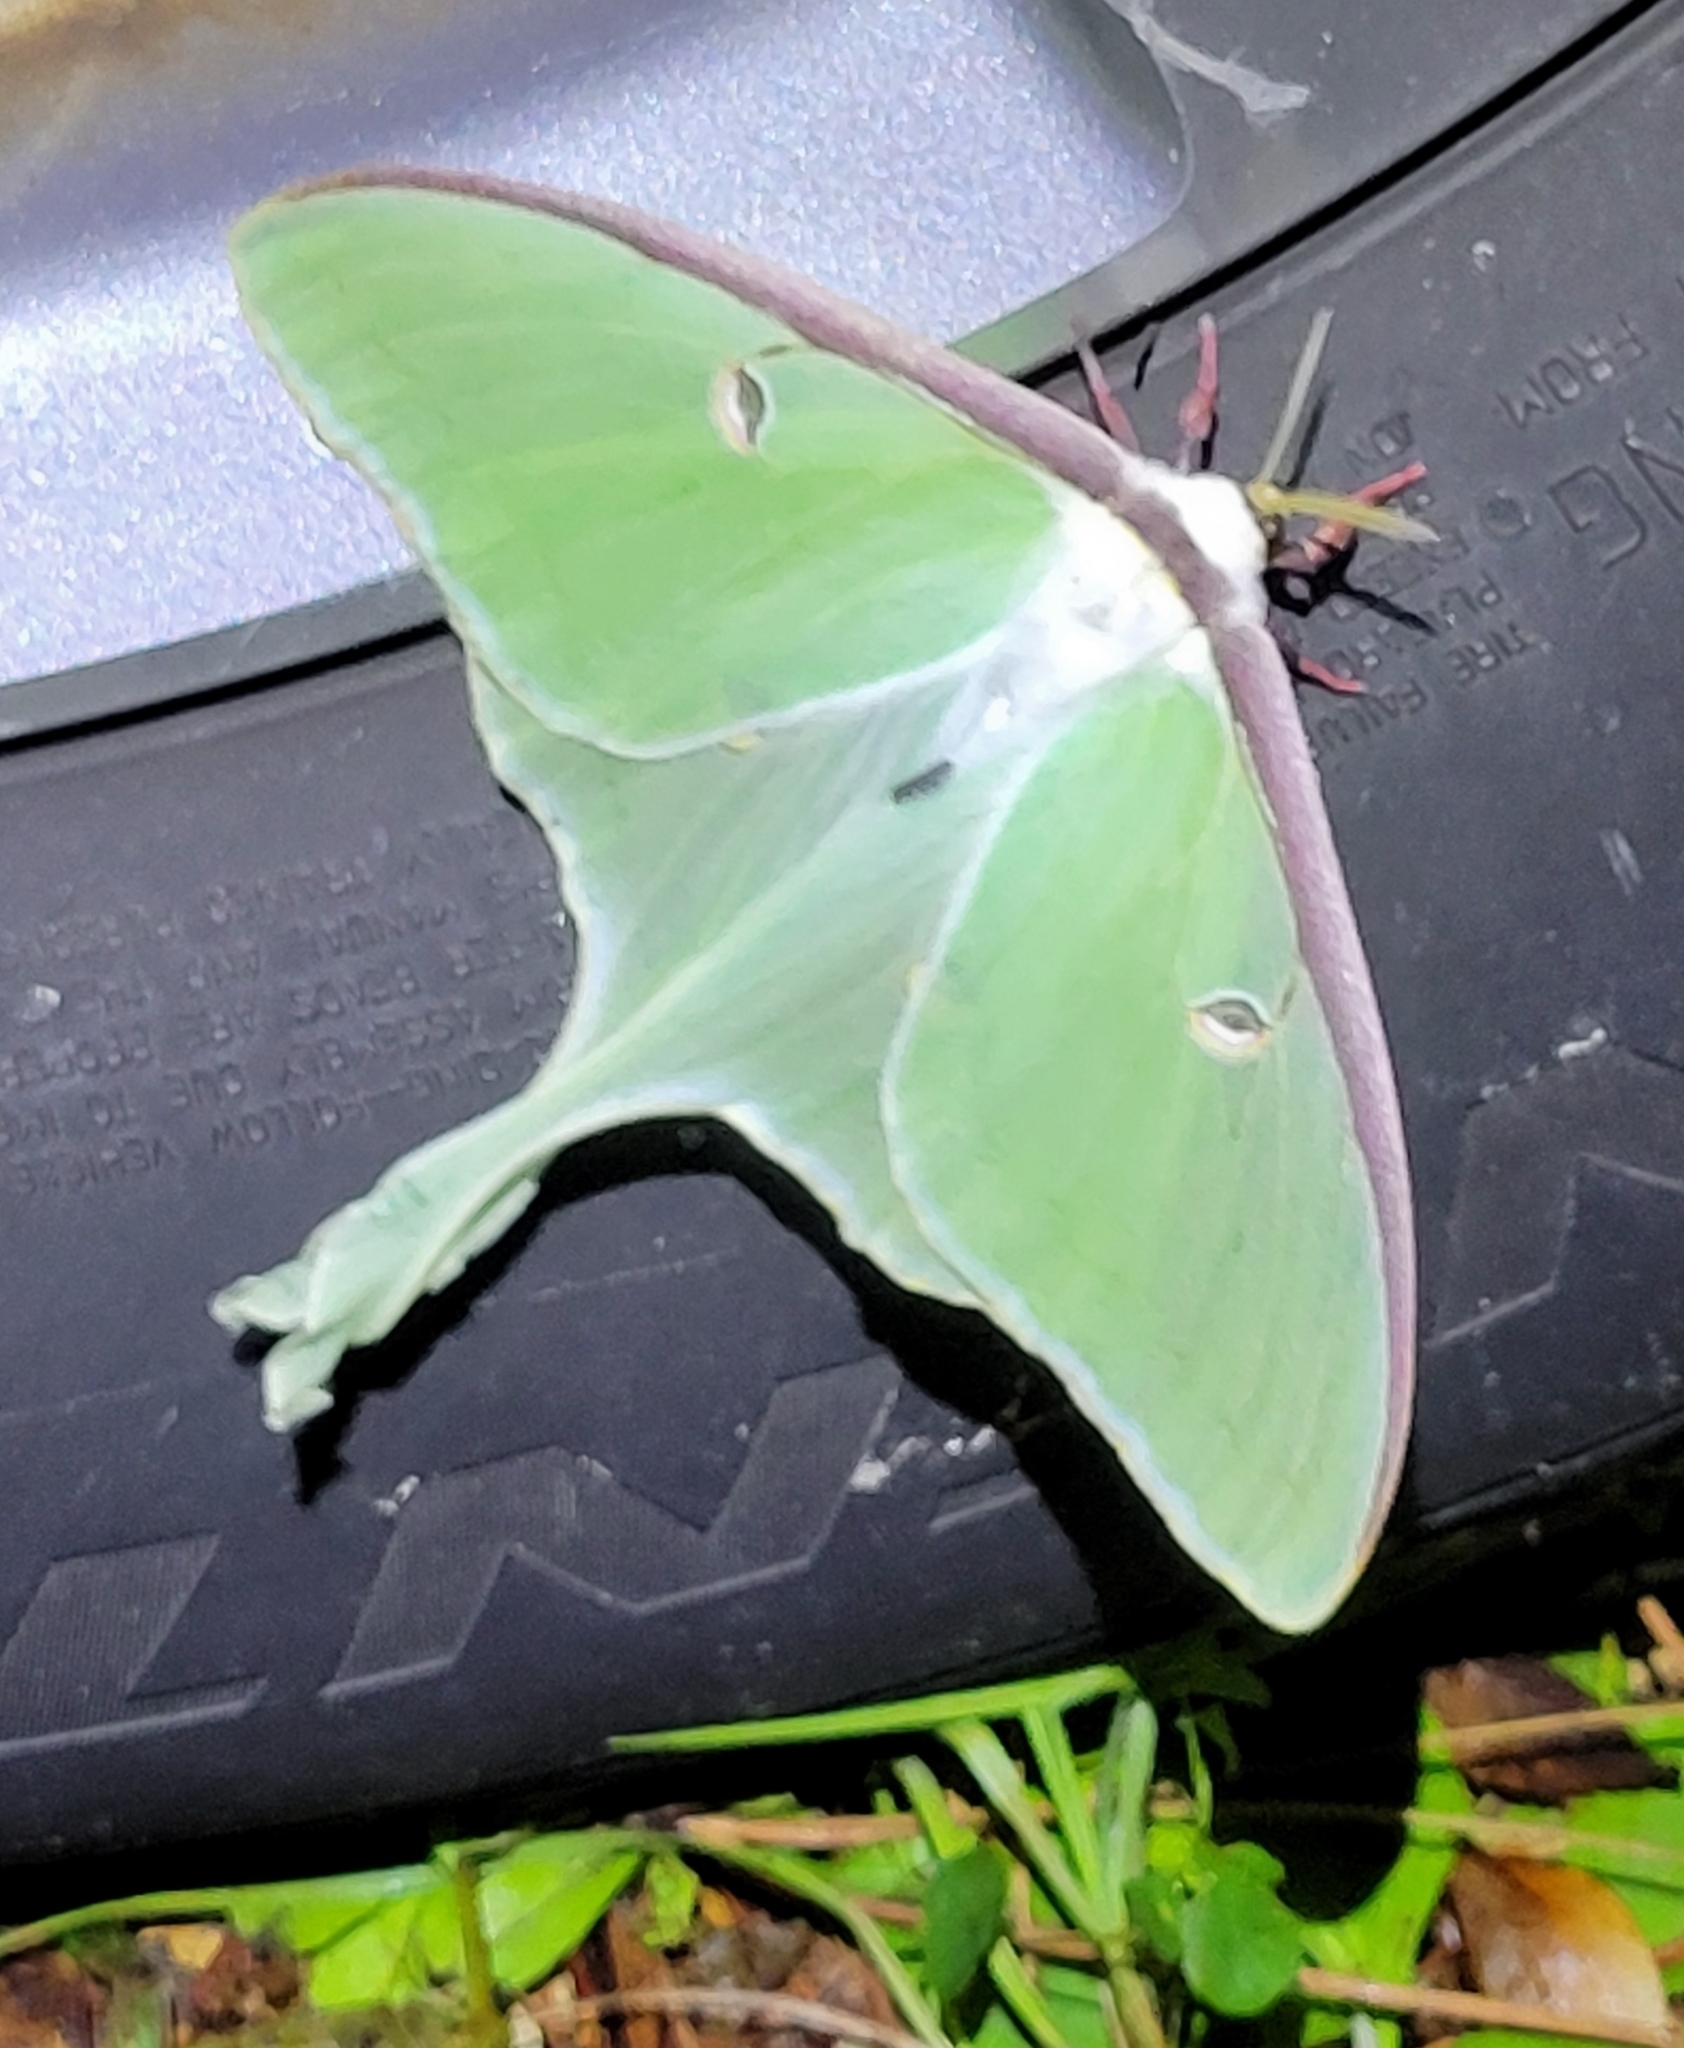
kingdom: Animalia
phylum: Arthropoda
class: Insecta
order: Lepidoptera
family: Saturniidae
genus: Actias
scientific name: Actias luna
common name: Luna moth
